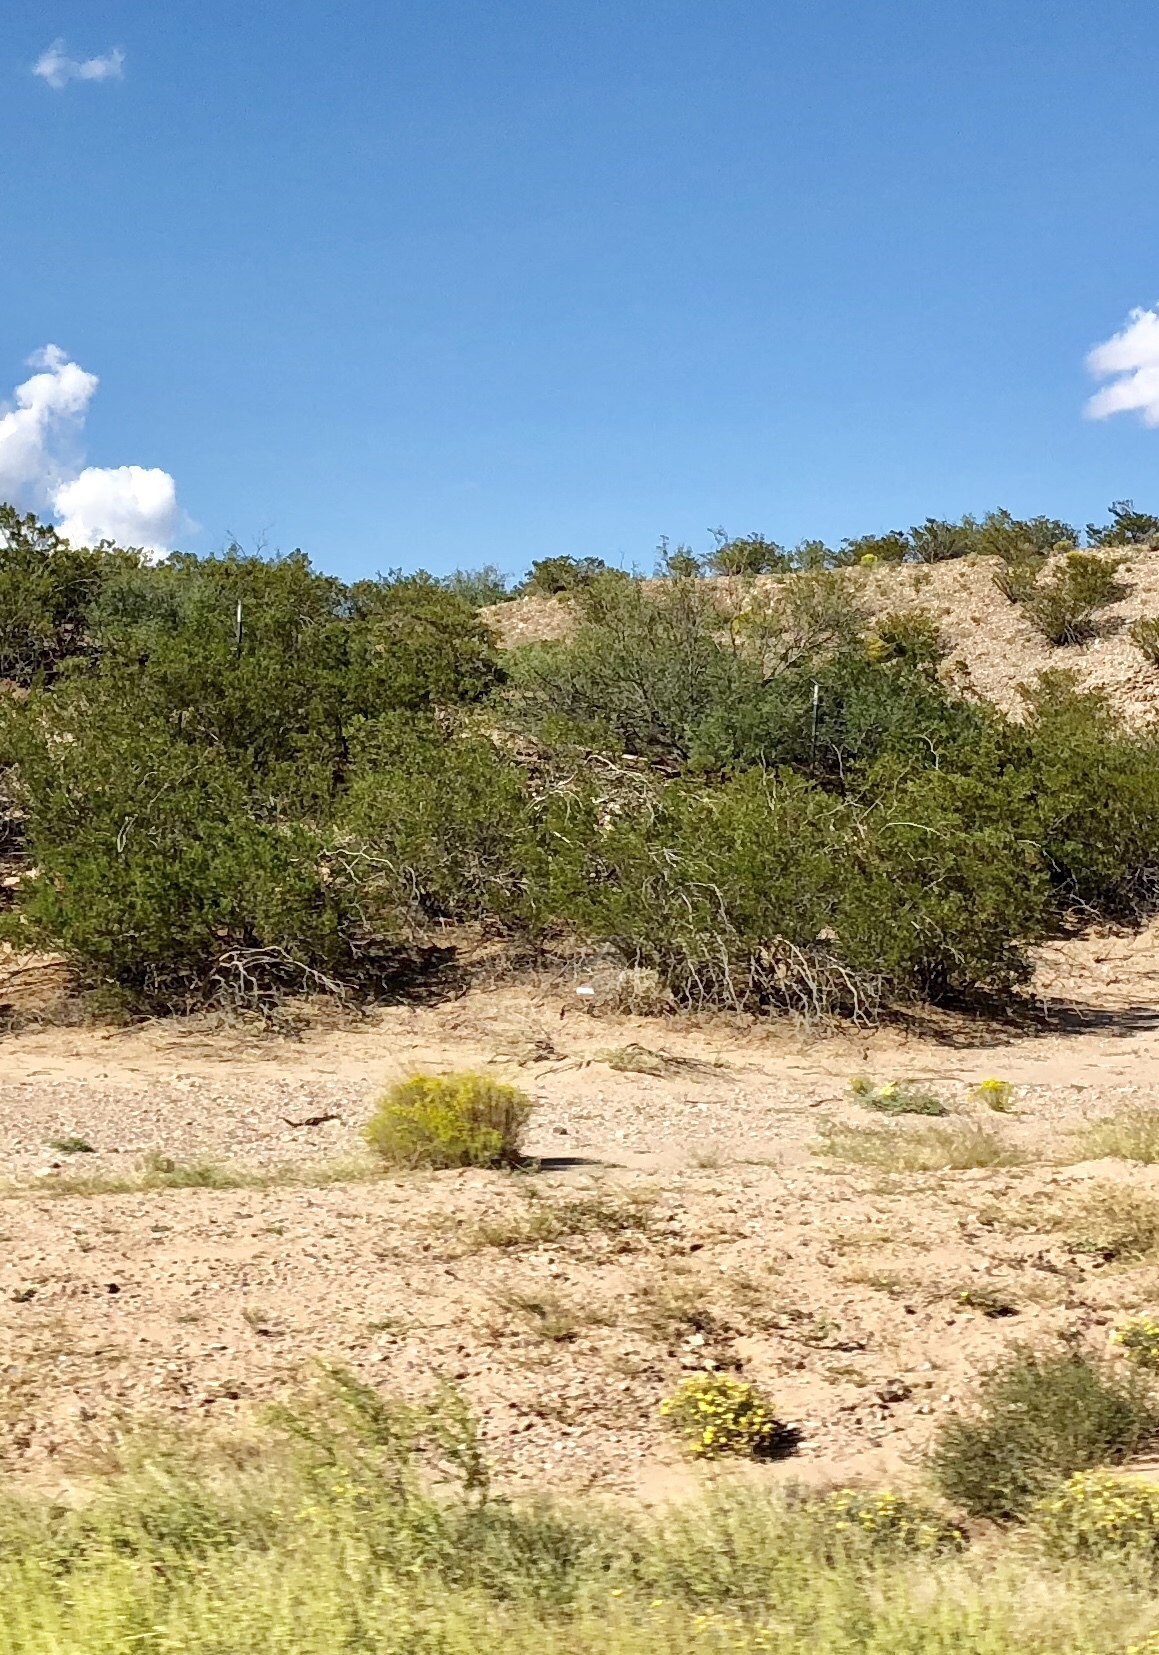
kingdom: Plantae
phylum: Tracheophyta
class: Magnoliopsida
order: Zygophyllales
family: Zygophyllaceae
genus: Larrea
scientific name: Larrea tridentata
